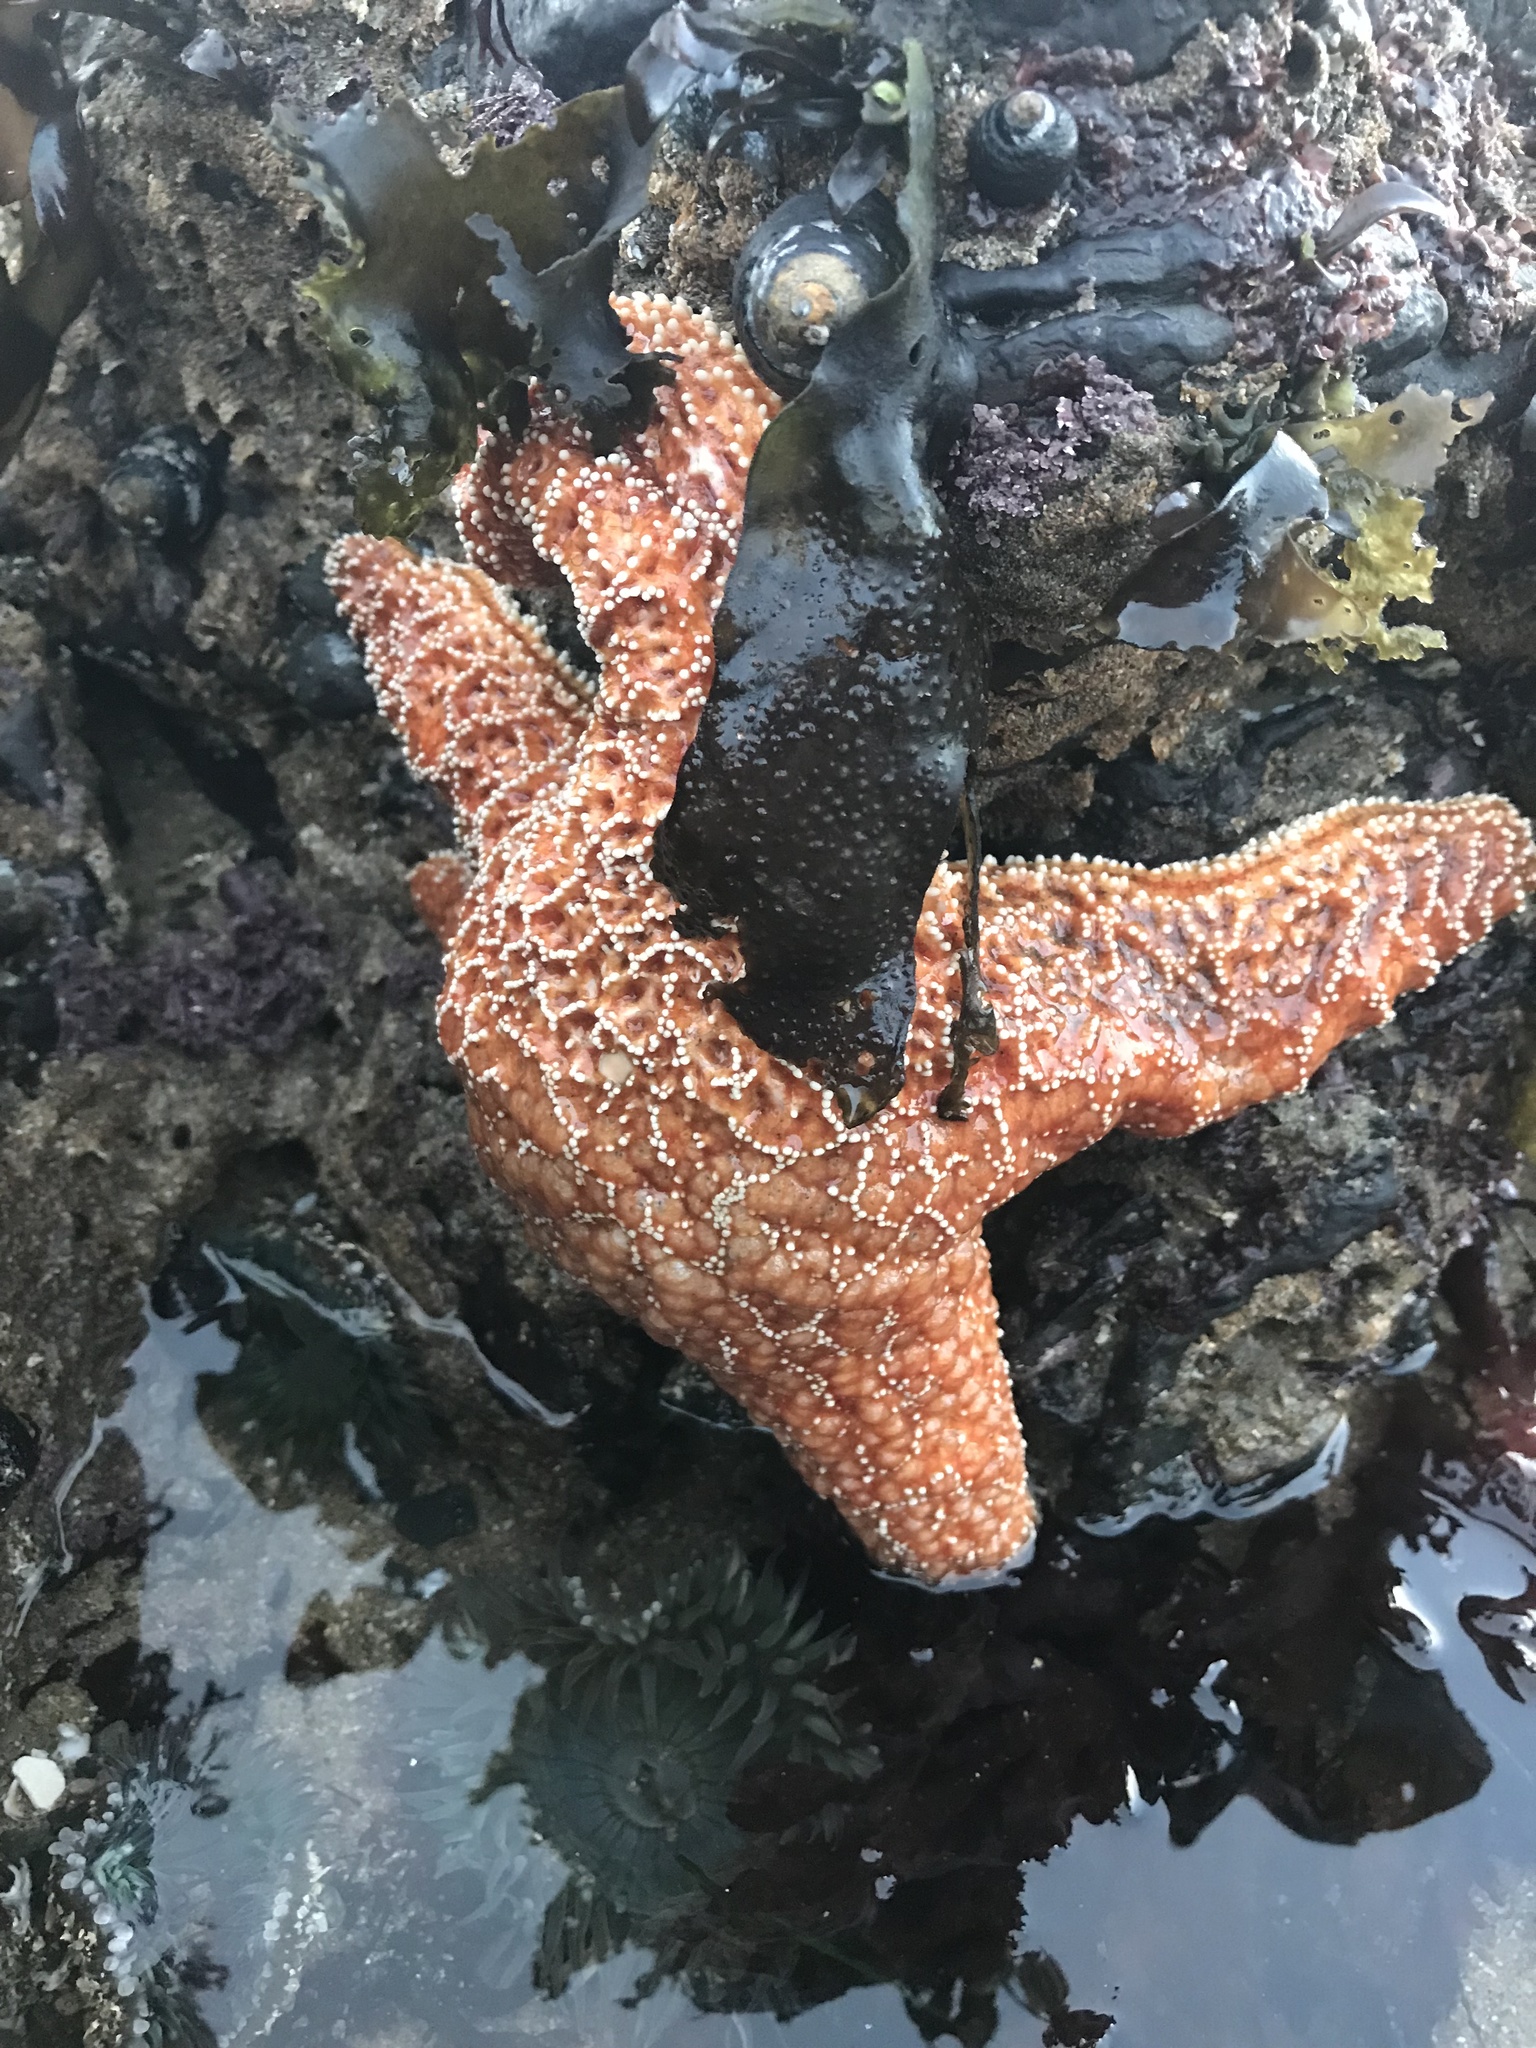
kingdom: Animalia
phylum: Echinodermata
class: Asteroidea
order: Forcipulatida
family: Asteriidae
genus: Pisaster
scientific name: Pisaster ochraceus
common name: Ochre stars
